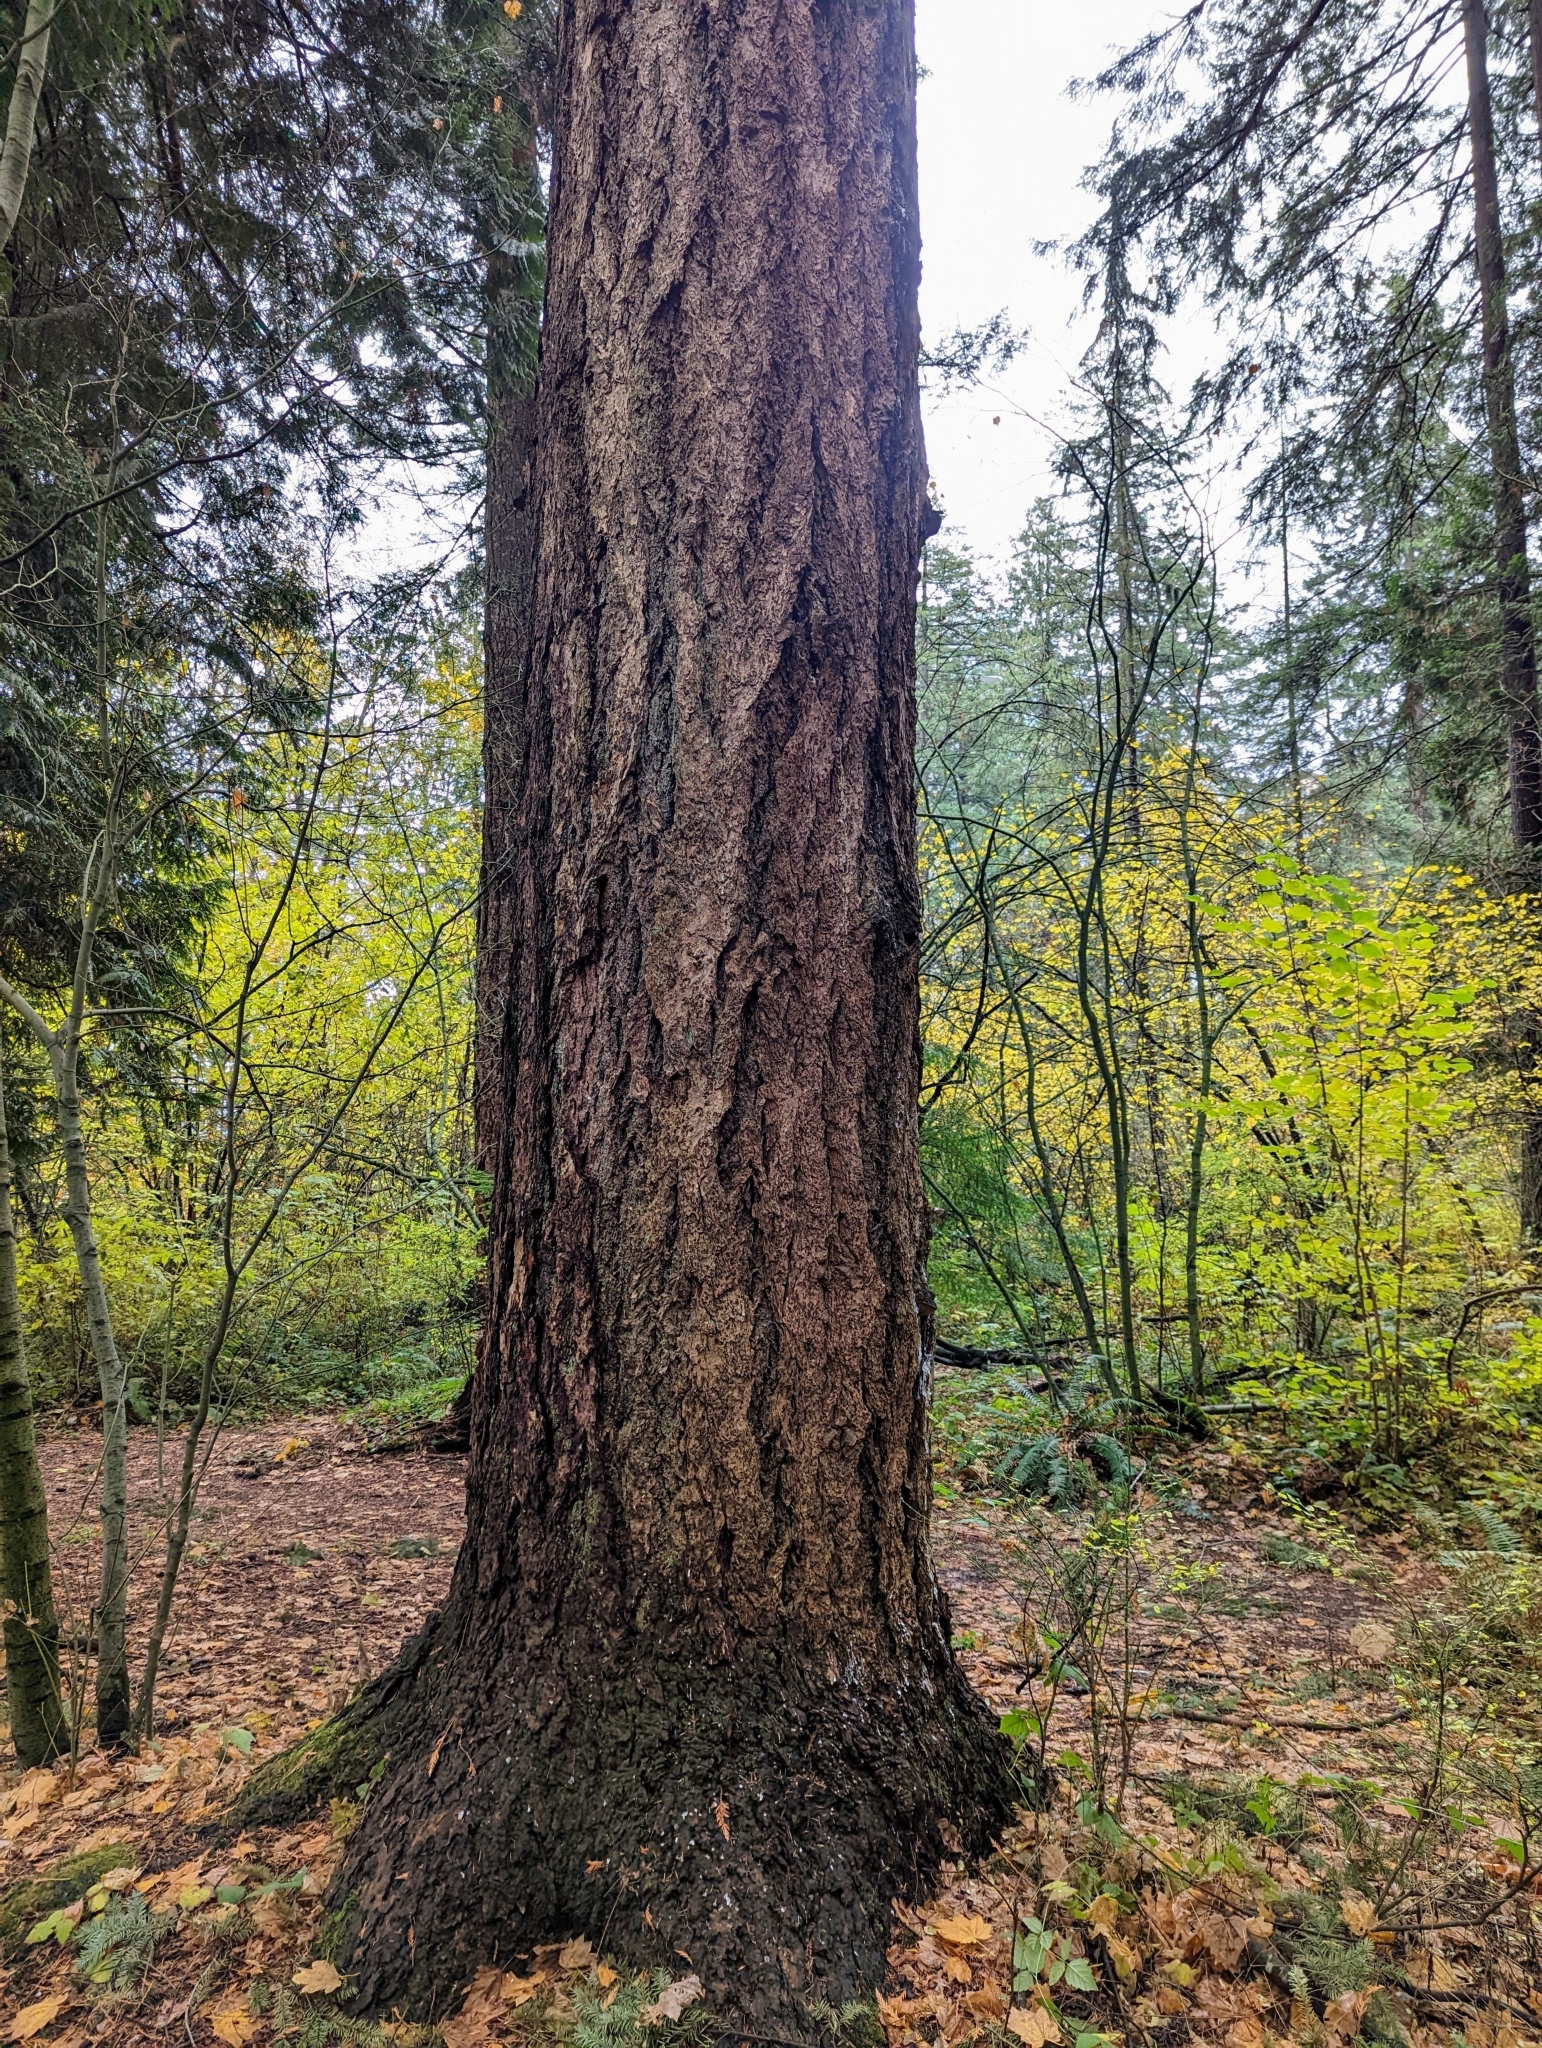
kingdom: Plantae
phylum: Tracheophyta
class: Pinopsida
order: Pinales
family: Pinaceae
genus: Pseudotsuga
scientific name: Pseudotsuga menziesii
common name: Douglas fir
